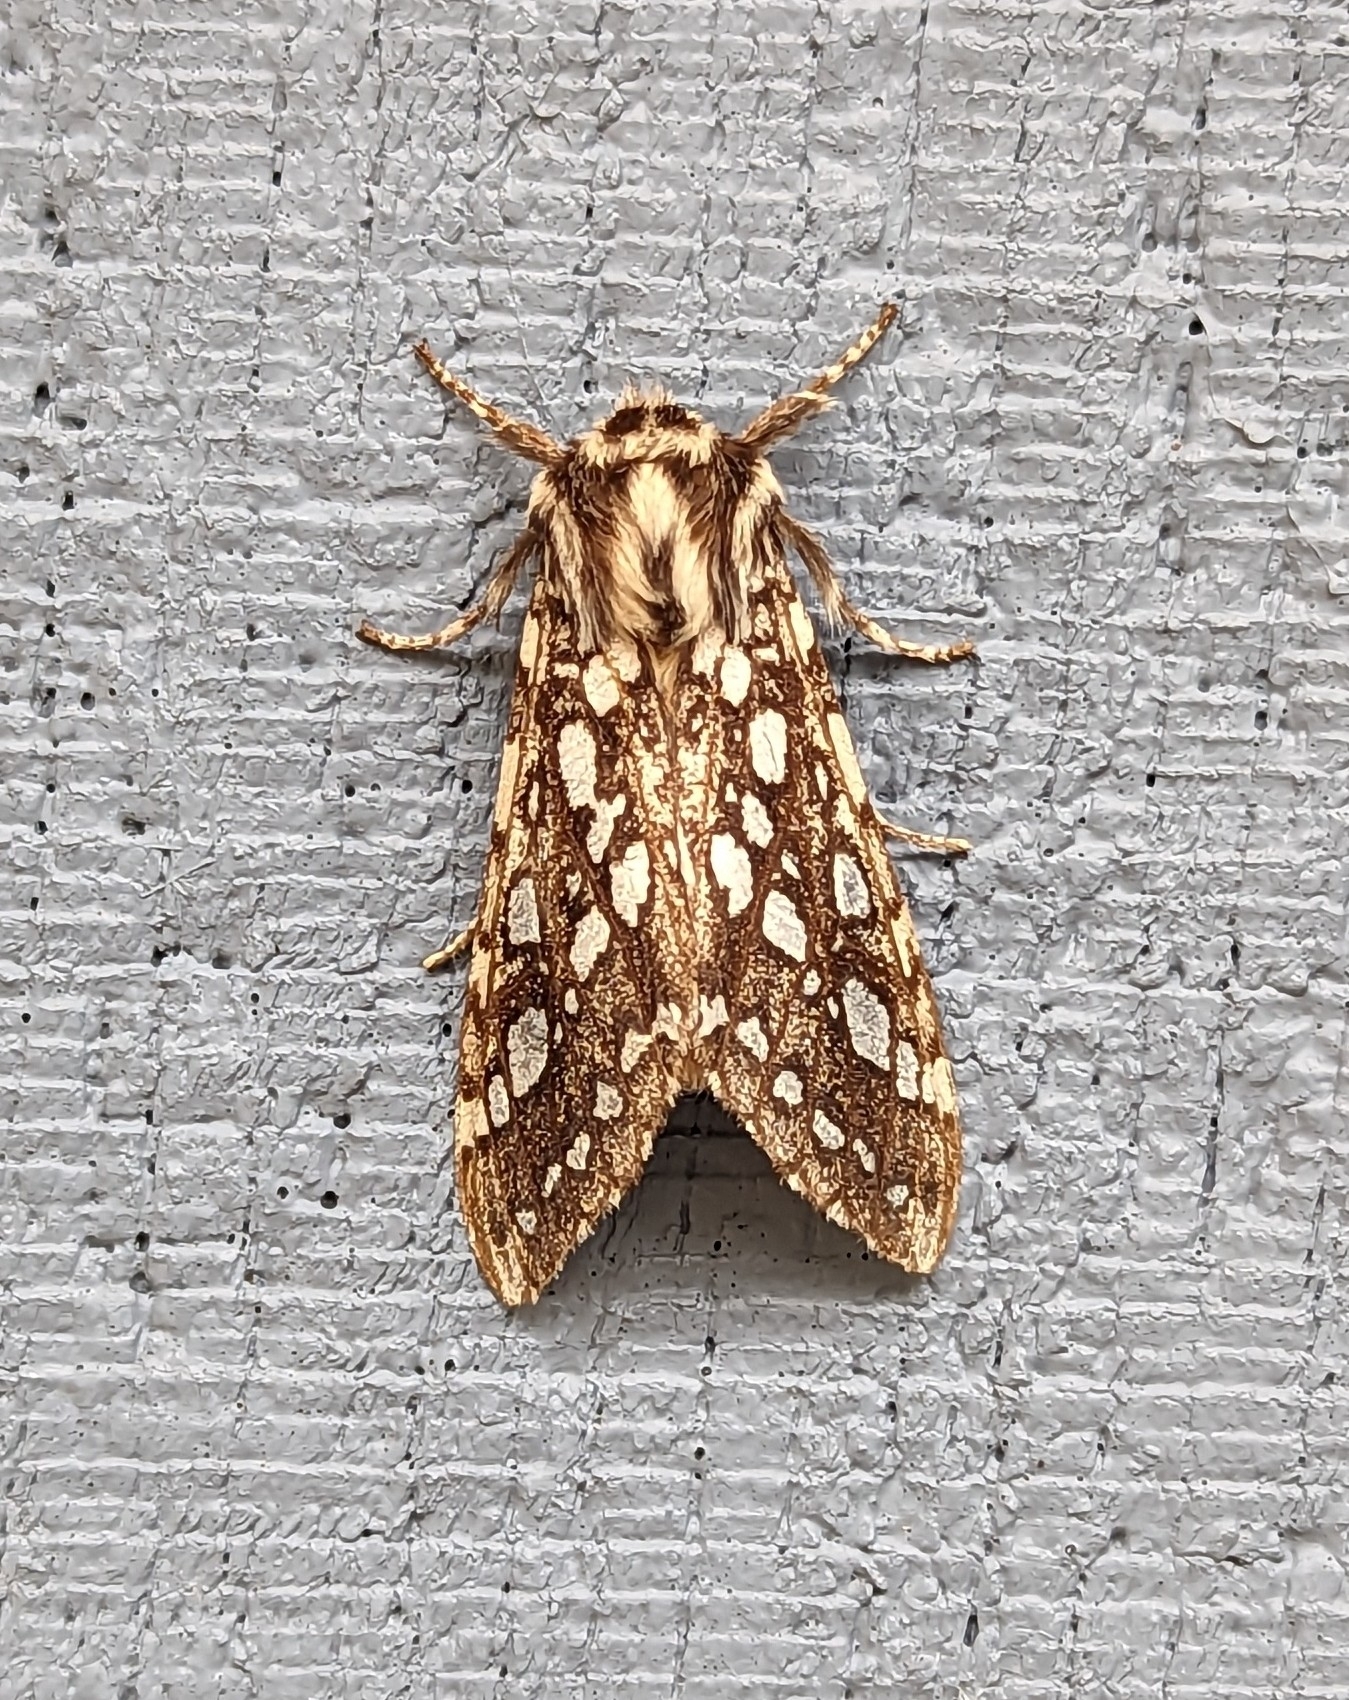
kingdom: Animalia
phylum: Arthropoda
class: Insecta
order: Lepidoptera
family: Erebidae
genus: Lophocampa
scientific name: Lophocampa argentata
